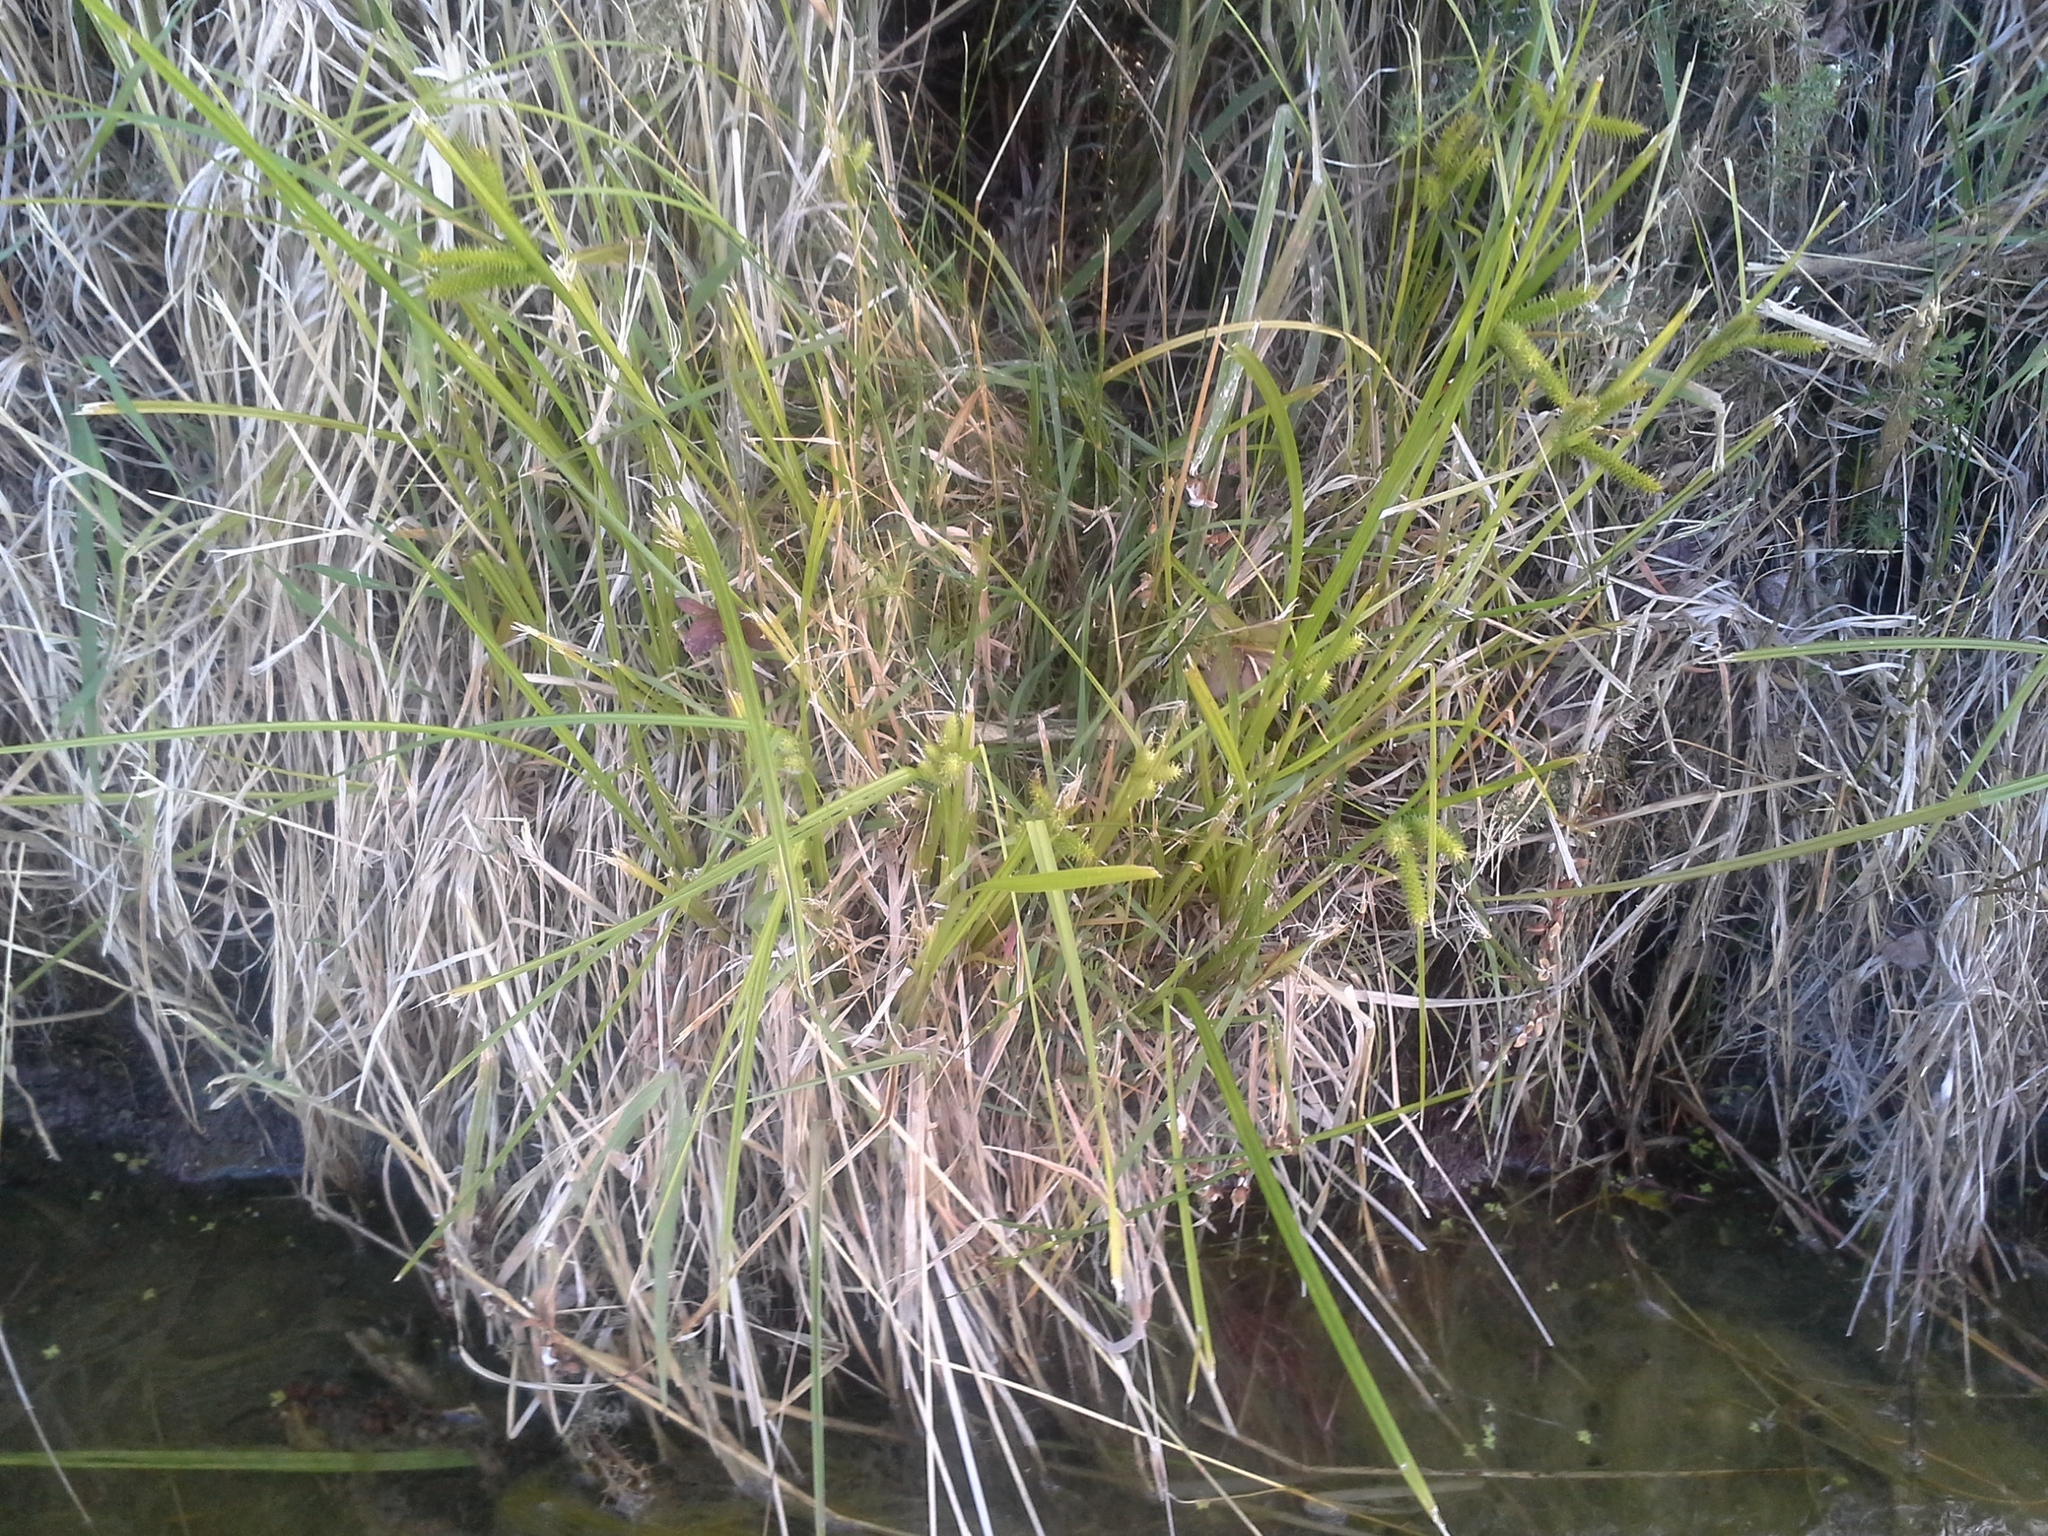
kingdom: Plantae
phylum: Tracheophyta
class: Liliopsida
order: Poales
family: Cyperaceae
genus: Carex
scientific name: Carex maorica
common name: Maori sedge
